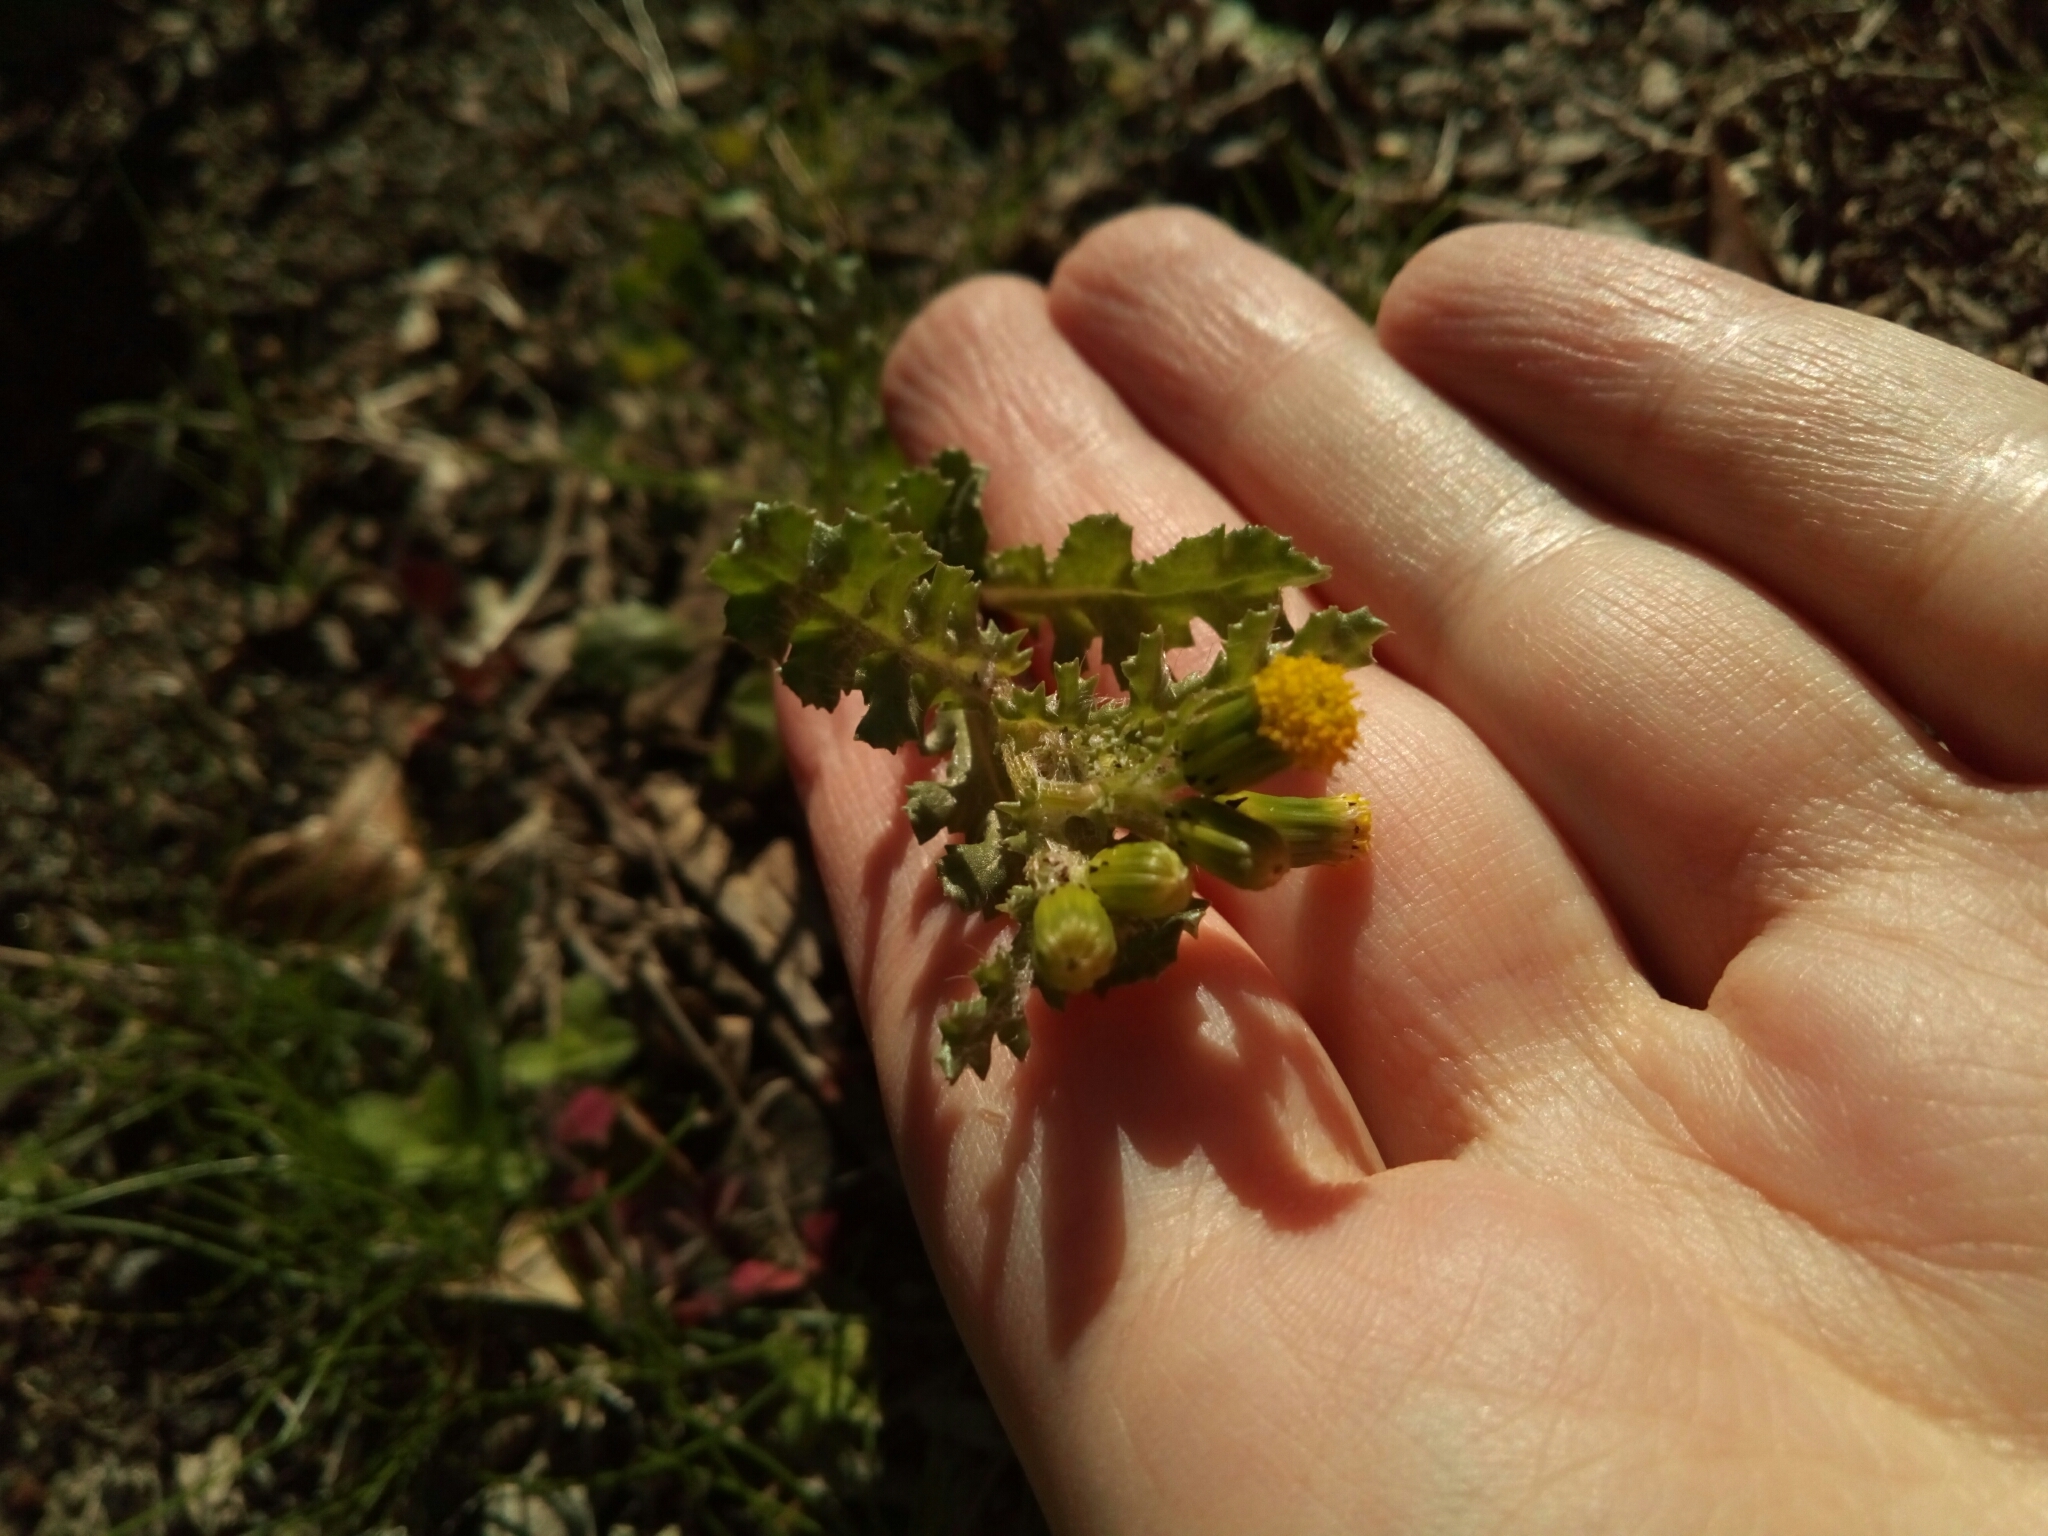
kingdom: Plantae
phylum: Tracheophyta
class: Magnoliopsida
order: Asterales
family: Asteraceae
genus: Senecio
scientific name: Senecio vulgaris
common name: Old-man-in-the-spring
